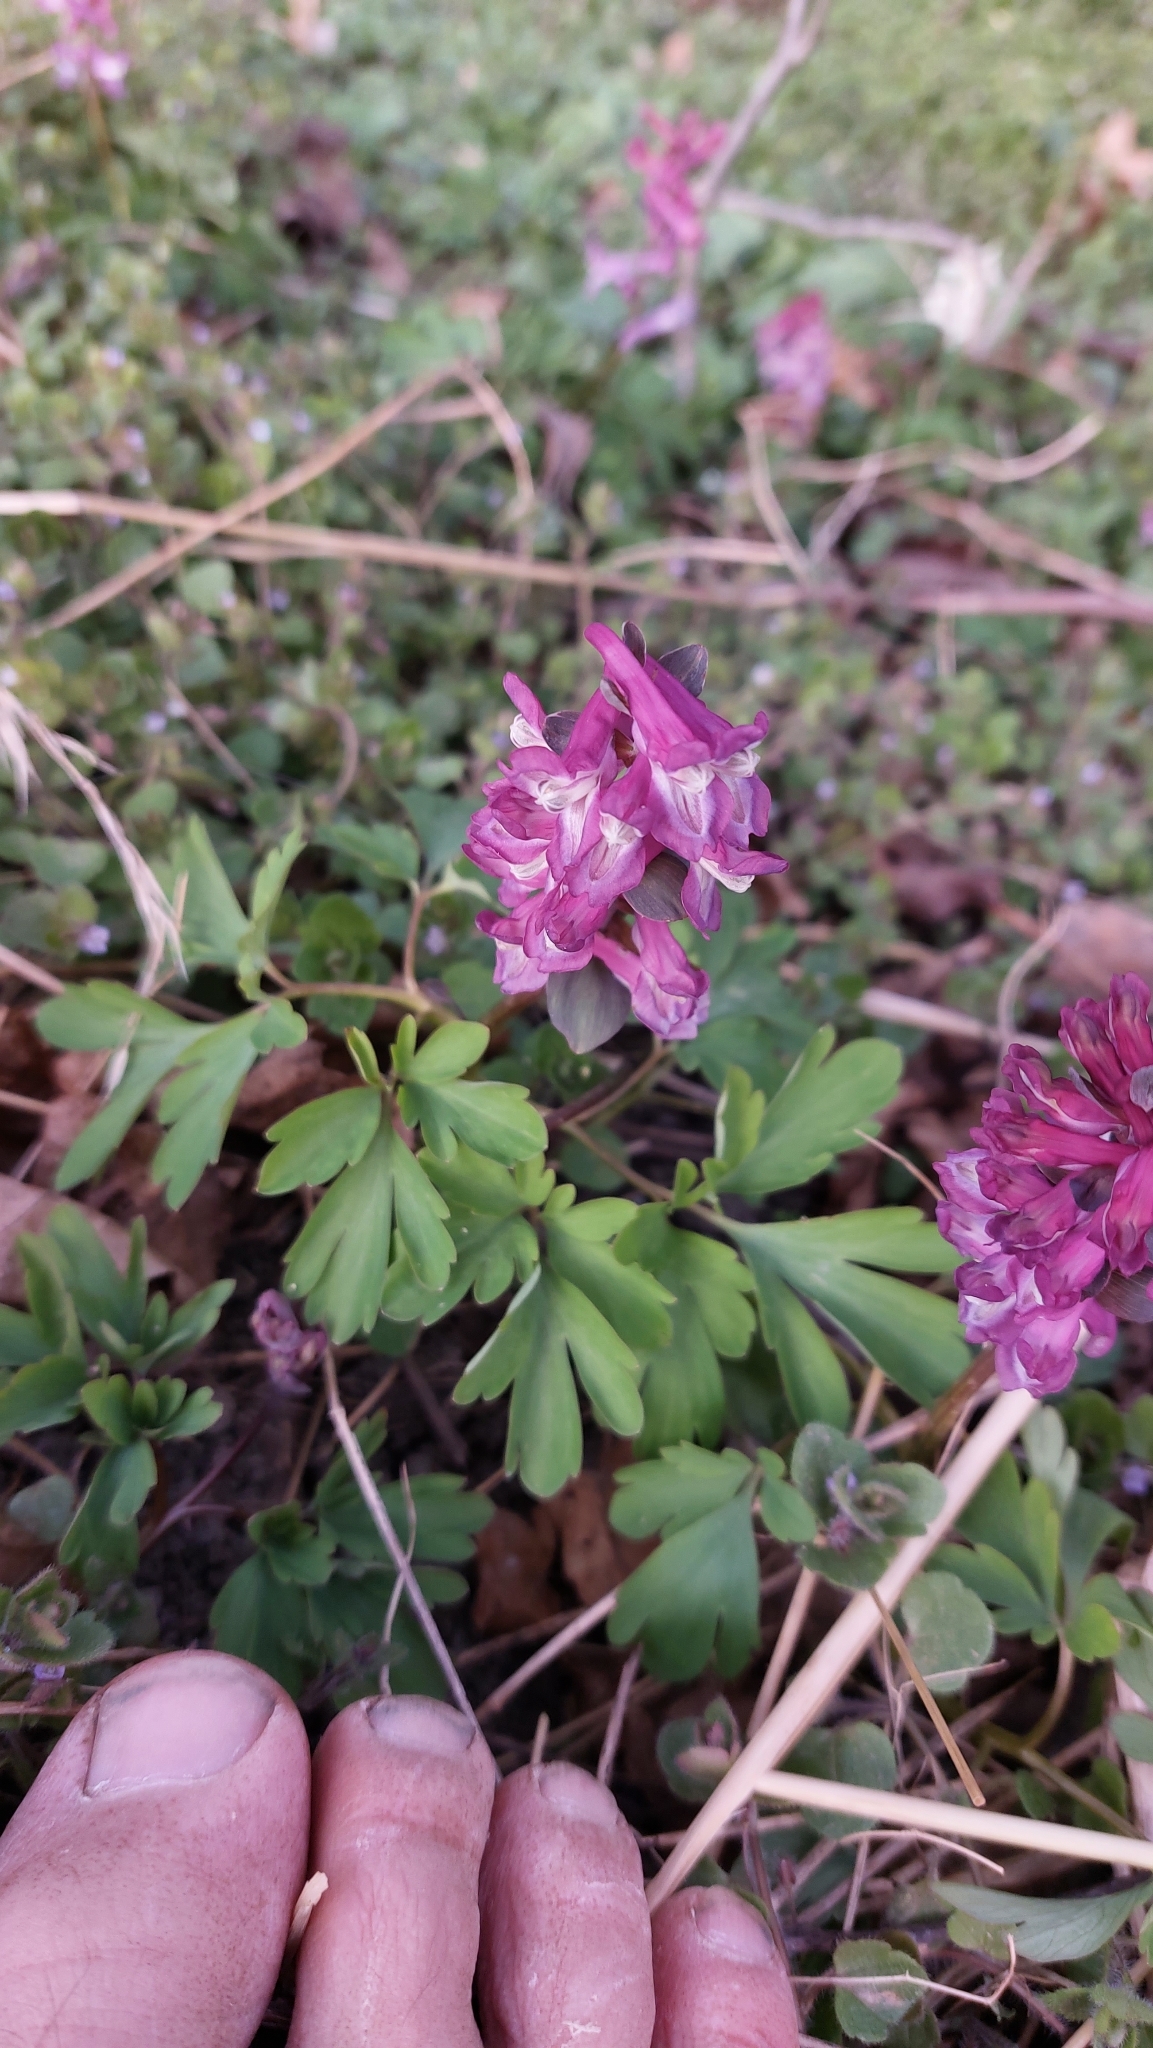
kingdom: Plantae
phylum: Tracheophyta
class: Magnoliopsida
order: Ranunculales
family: Papaveraceae
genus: Corydalis
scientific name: Corydalis cava
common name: Hollowroot
